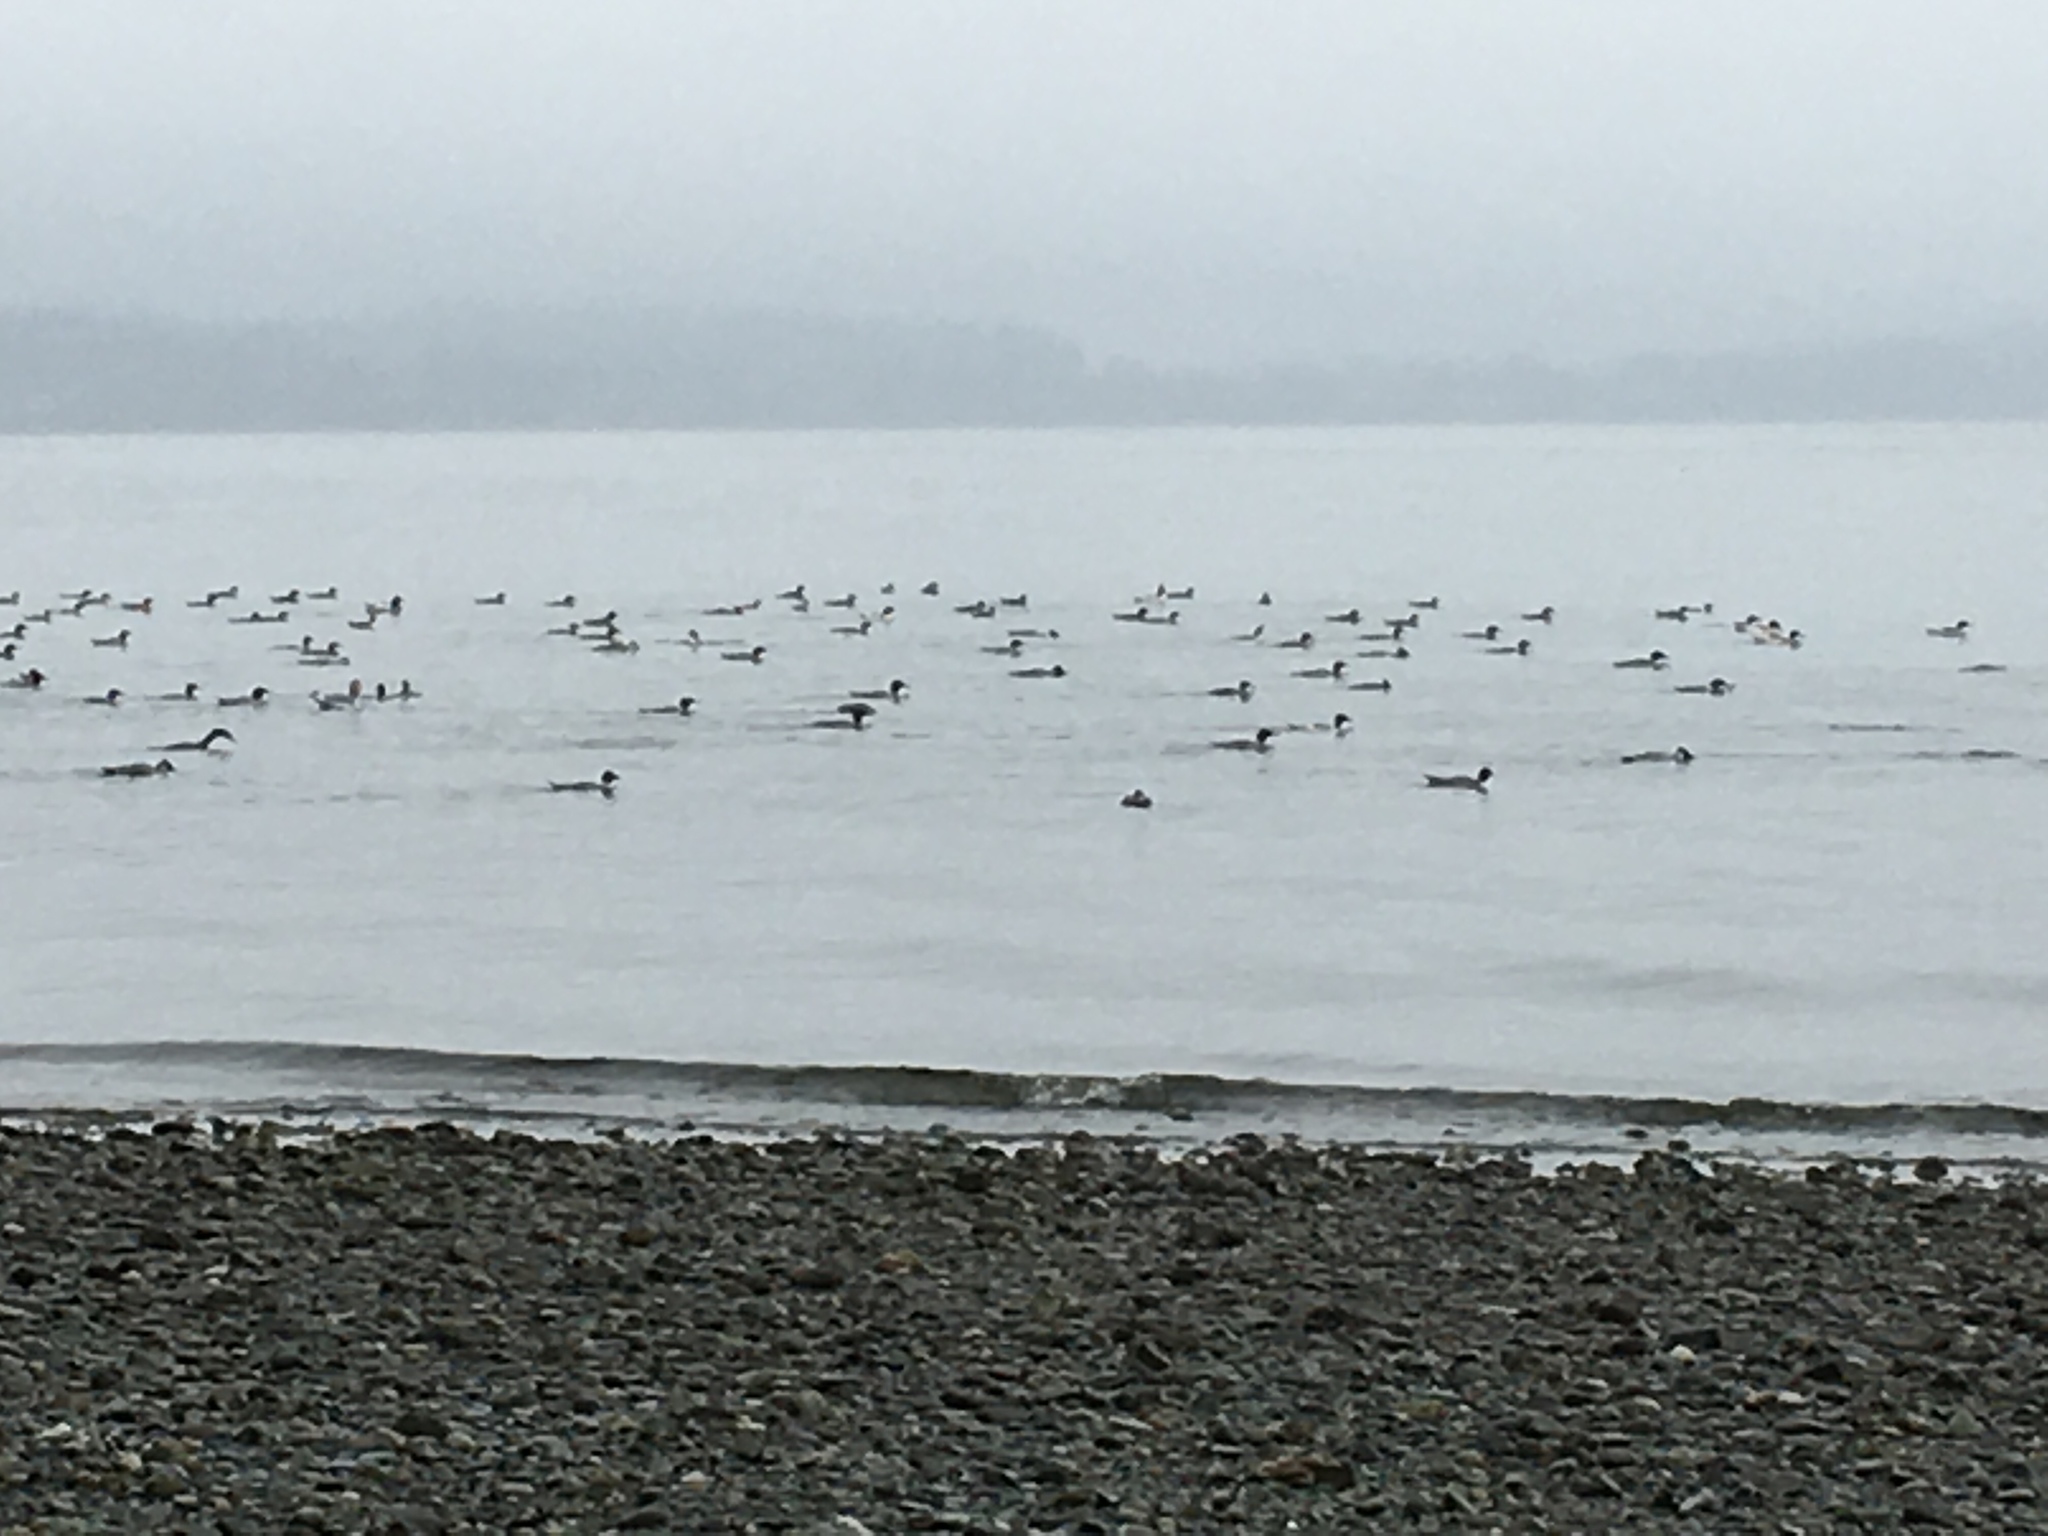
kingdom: Animalia
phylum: Chordata
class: Aves
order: Anseriformes
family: Anatidae
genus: Mergus
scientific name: Mergus merganser
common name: Common merganser
